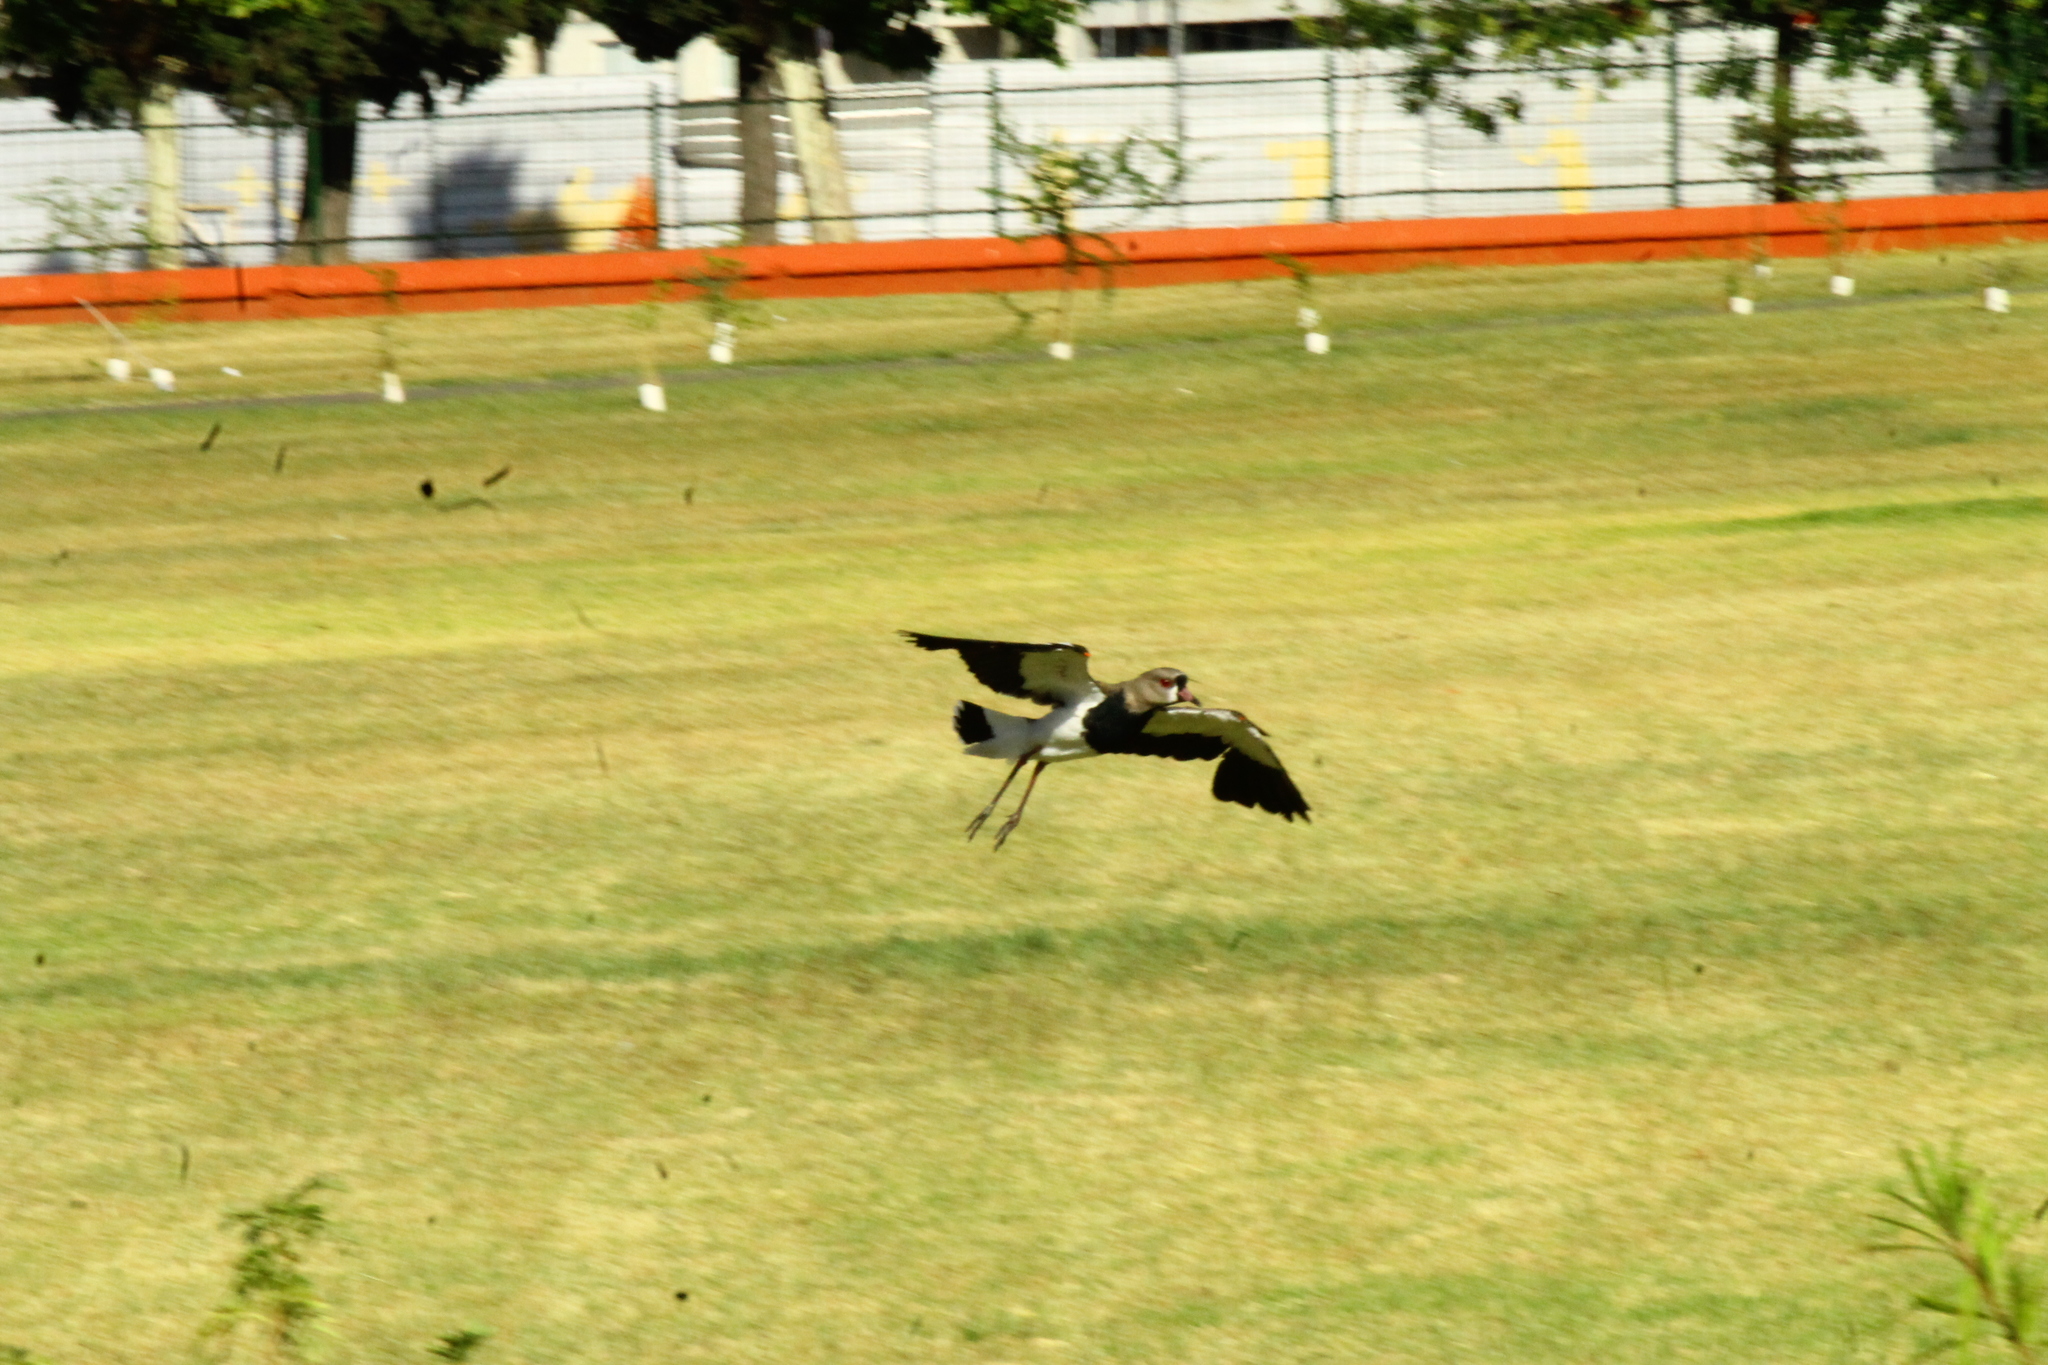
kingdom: Animalia
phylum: Chordata
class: Aves
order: Charadriiformes
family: Charadriidae
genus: Vanellus
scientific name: Vanellus chilensis
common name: Southern lapwing
